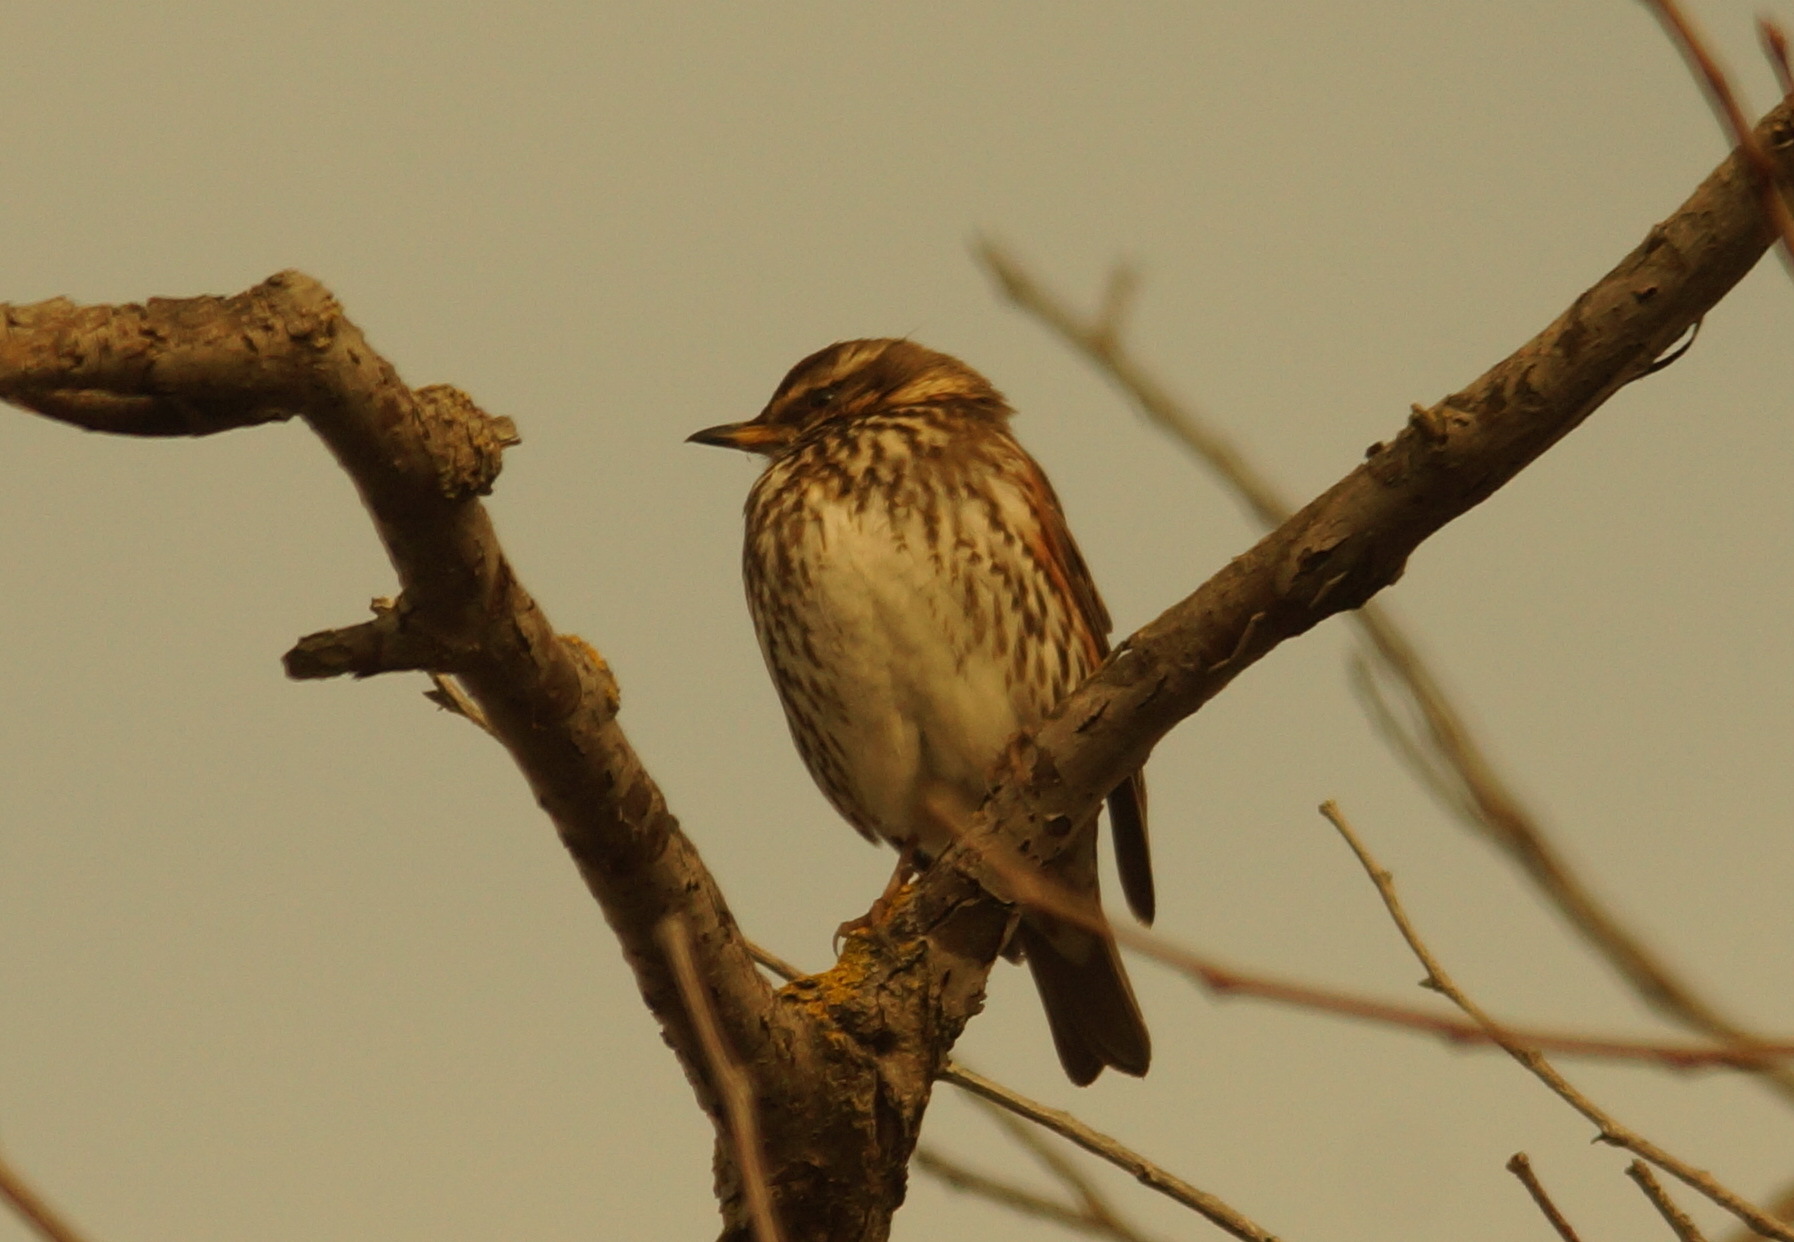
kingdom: Animalia
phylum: Chordata
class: Aves
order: Passeriformes
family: Turdidae
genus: Turdus
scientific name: Turdus iliacus
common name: Redwing
